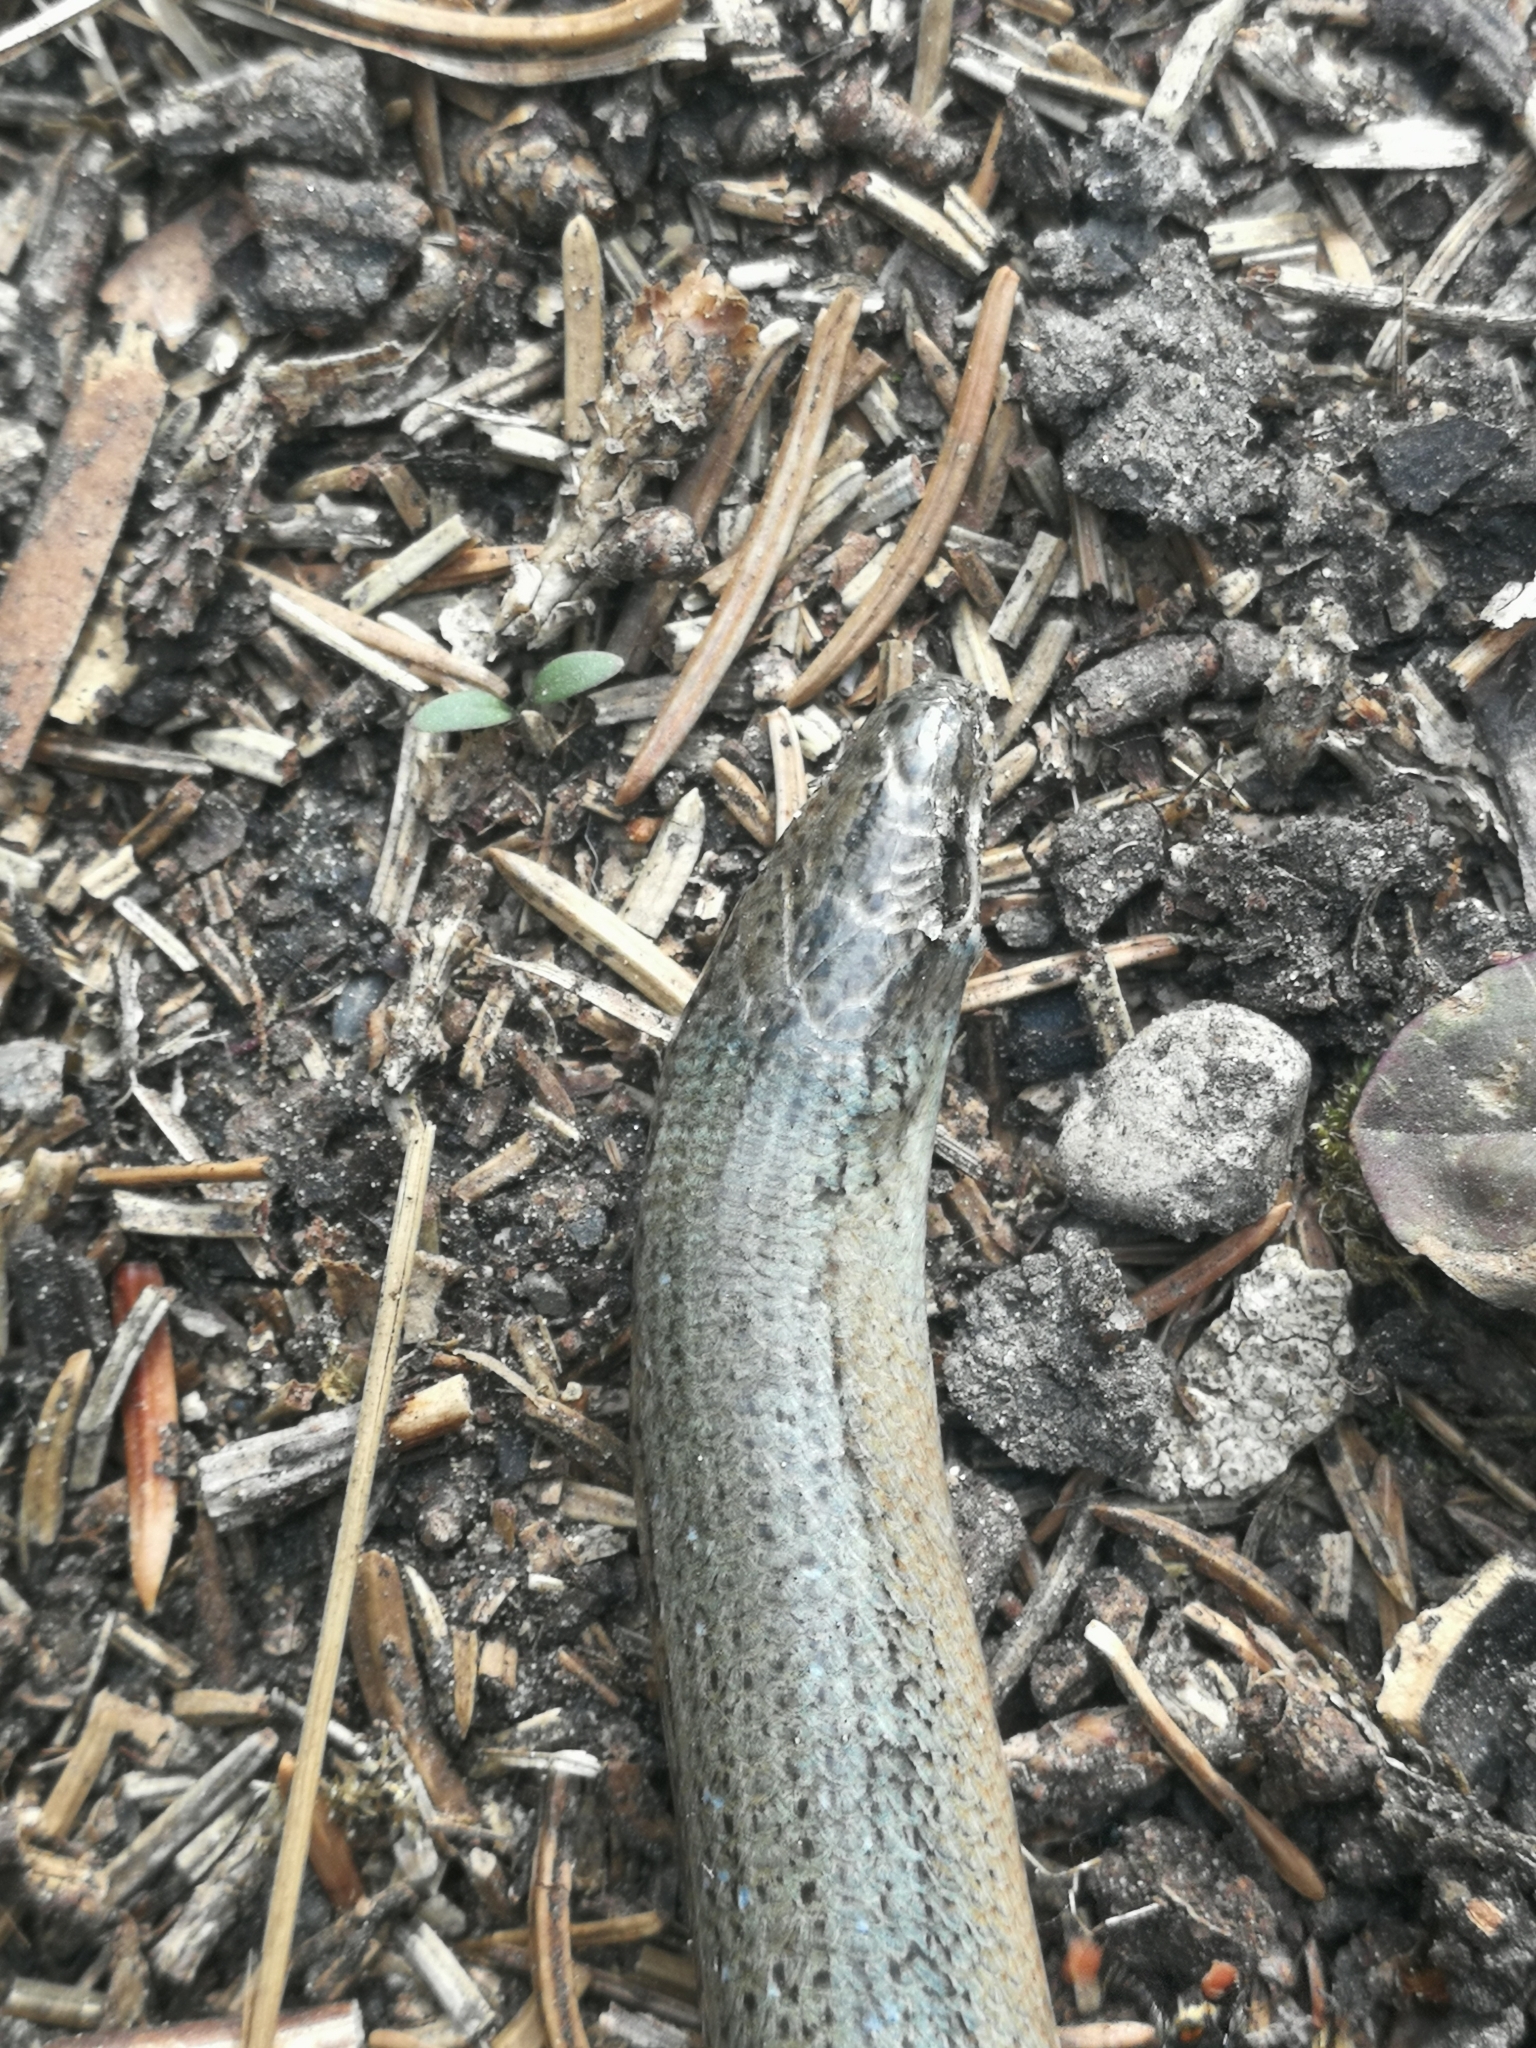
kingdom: Animalia
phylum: Chordata
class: Squamata
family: Anguidae
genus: Anguis
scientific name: Anguis fragilis
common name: Slow worm
